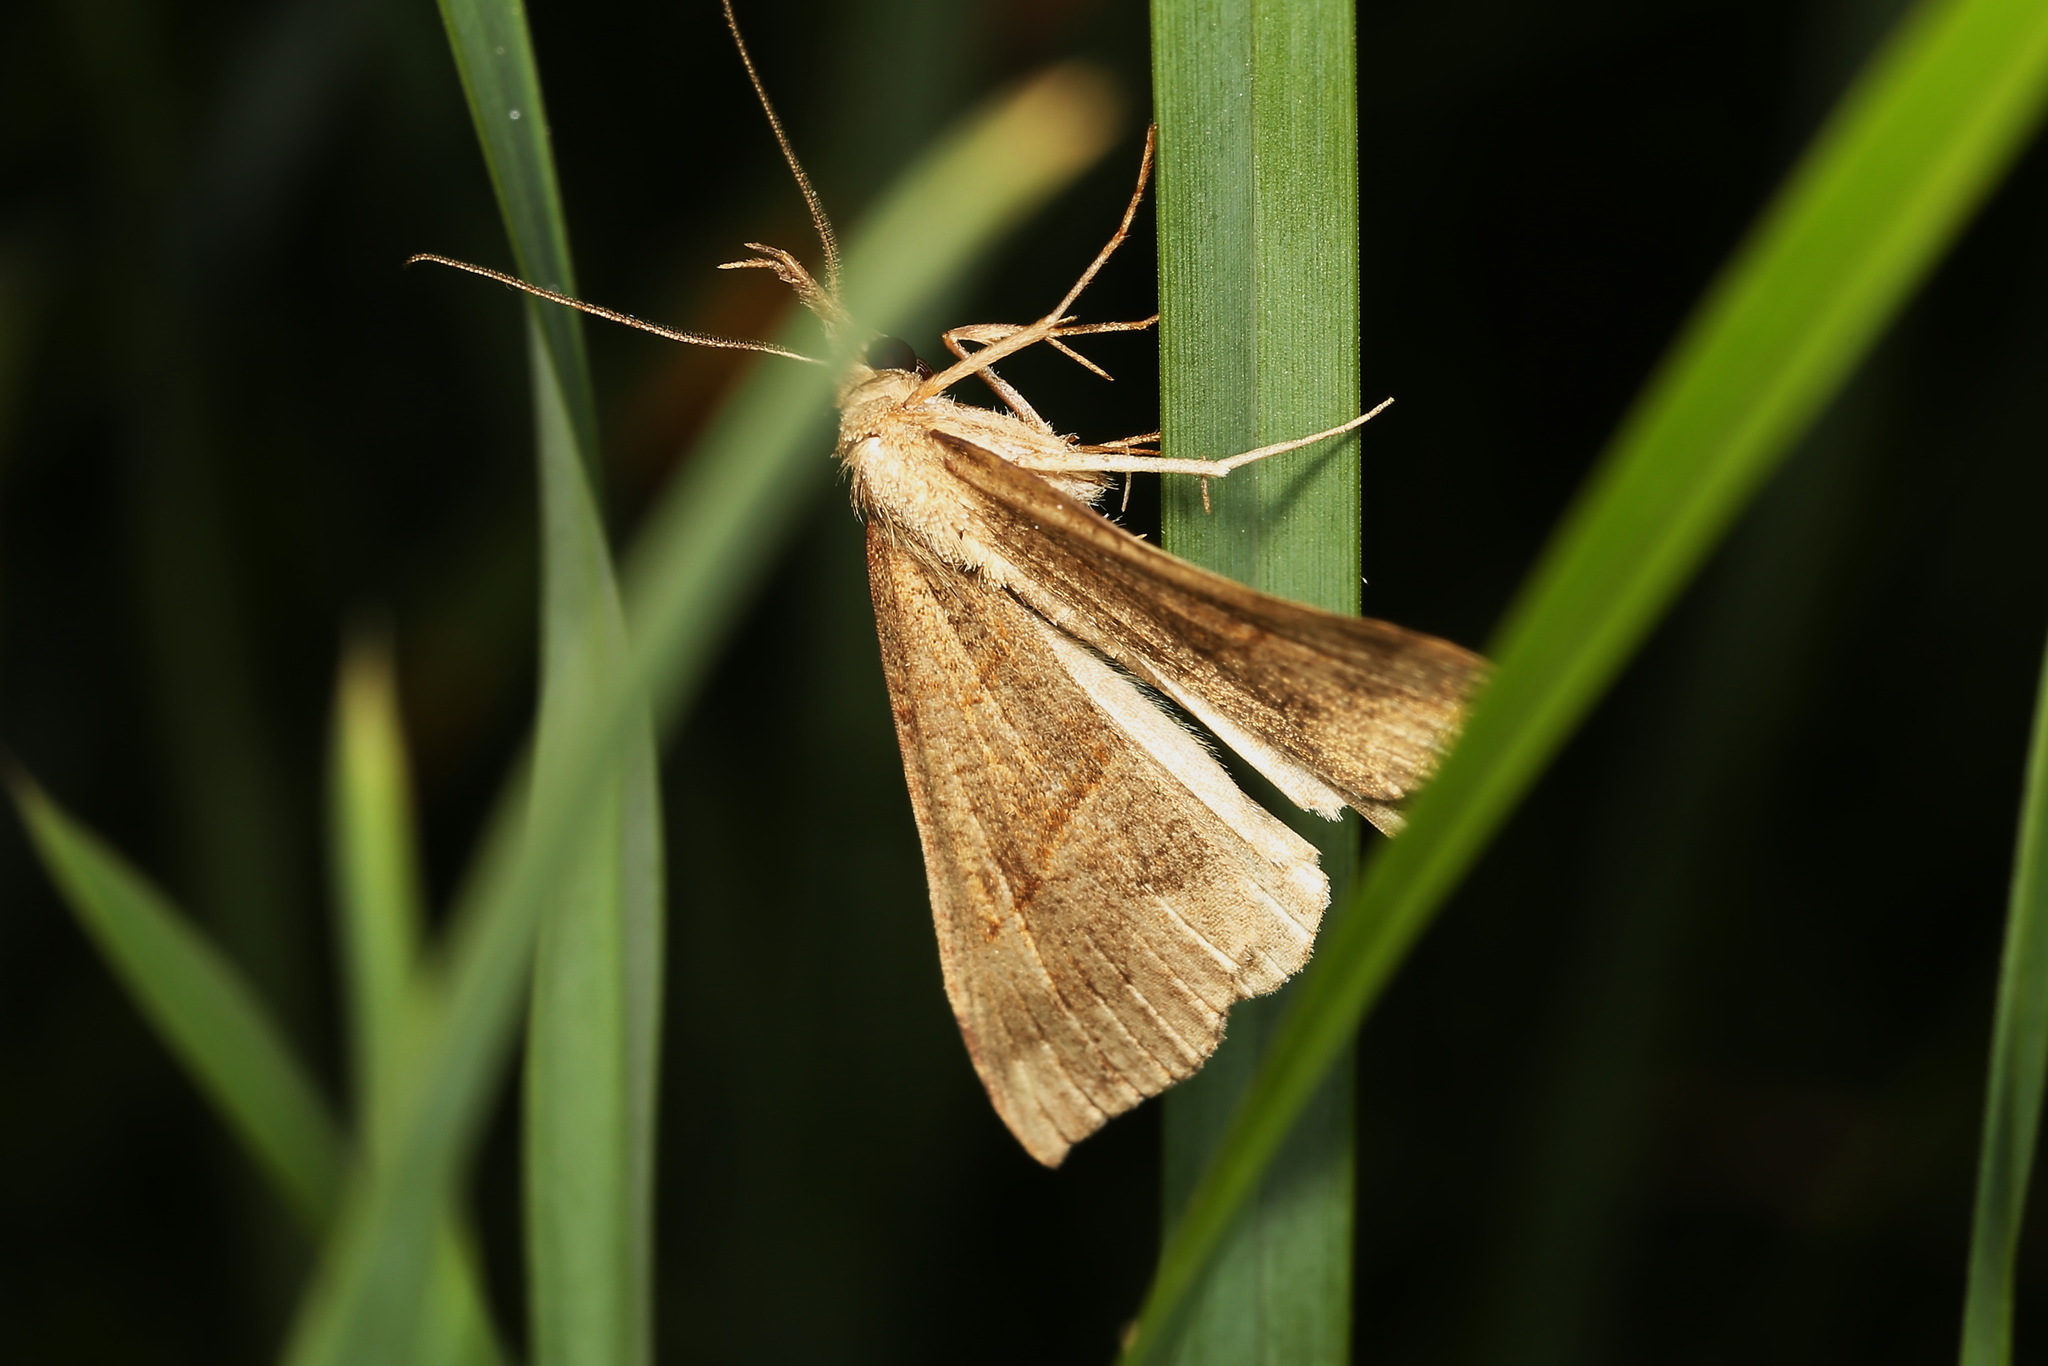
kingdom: Animalia
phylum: Arthropoda
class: Insecta
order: Lepidoptera
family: Erebidae
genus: Hypena
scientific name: Hypena proboscidalis
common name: Snout
